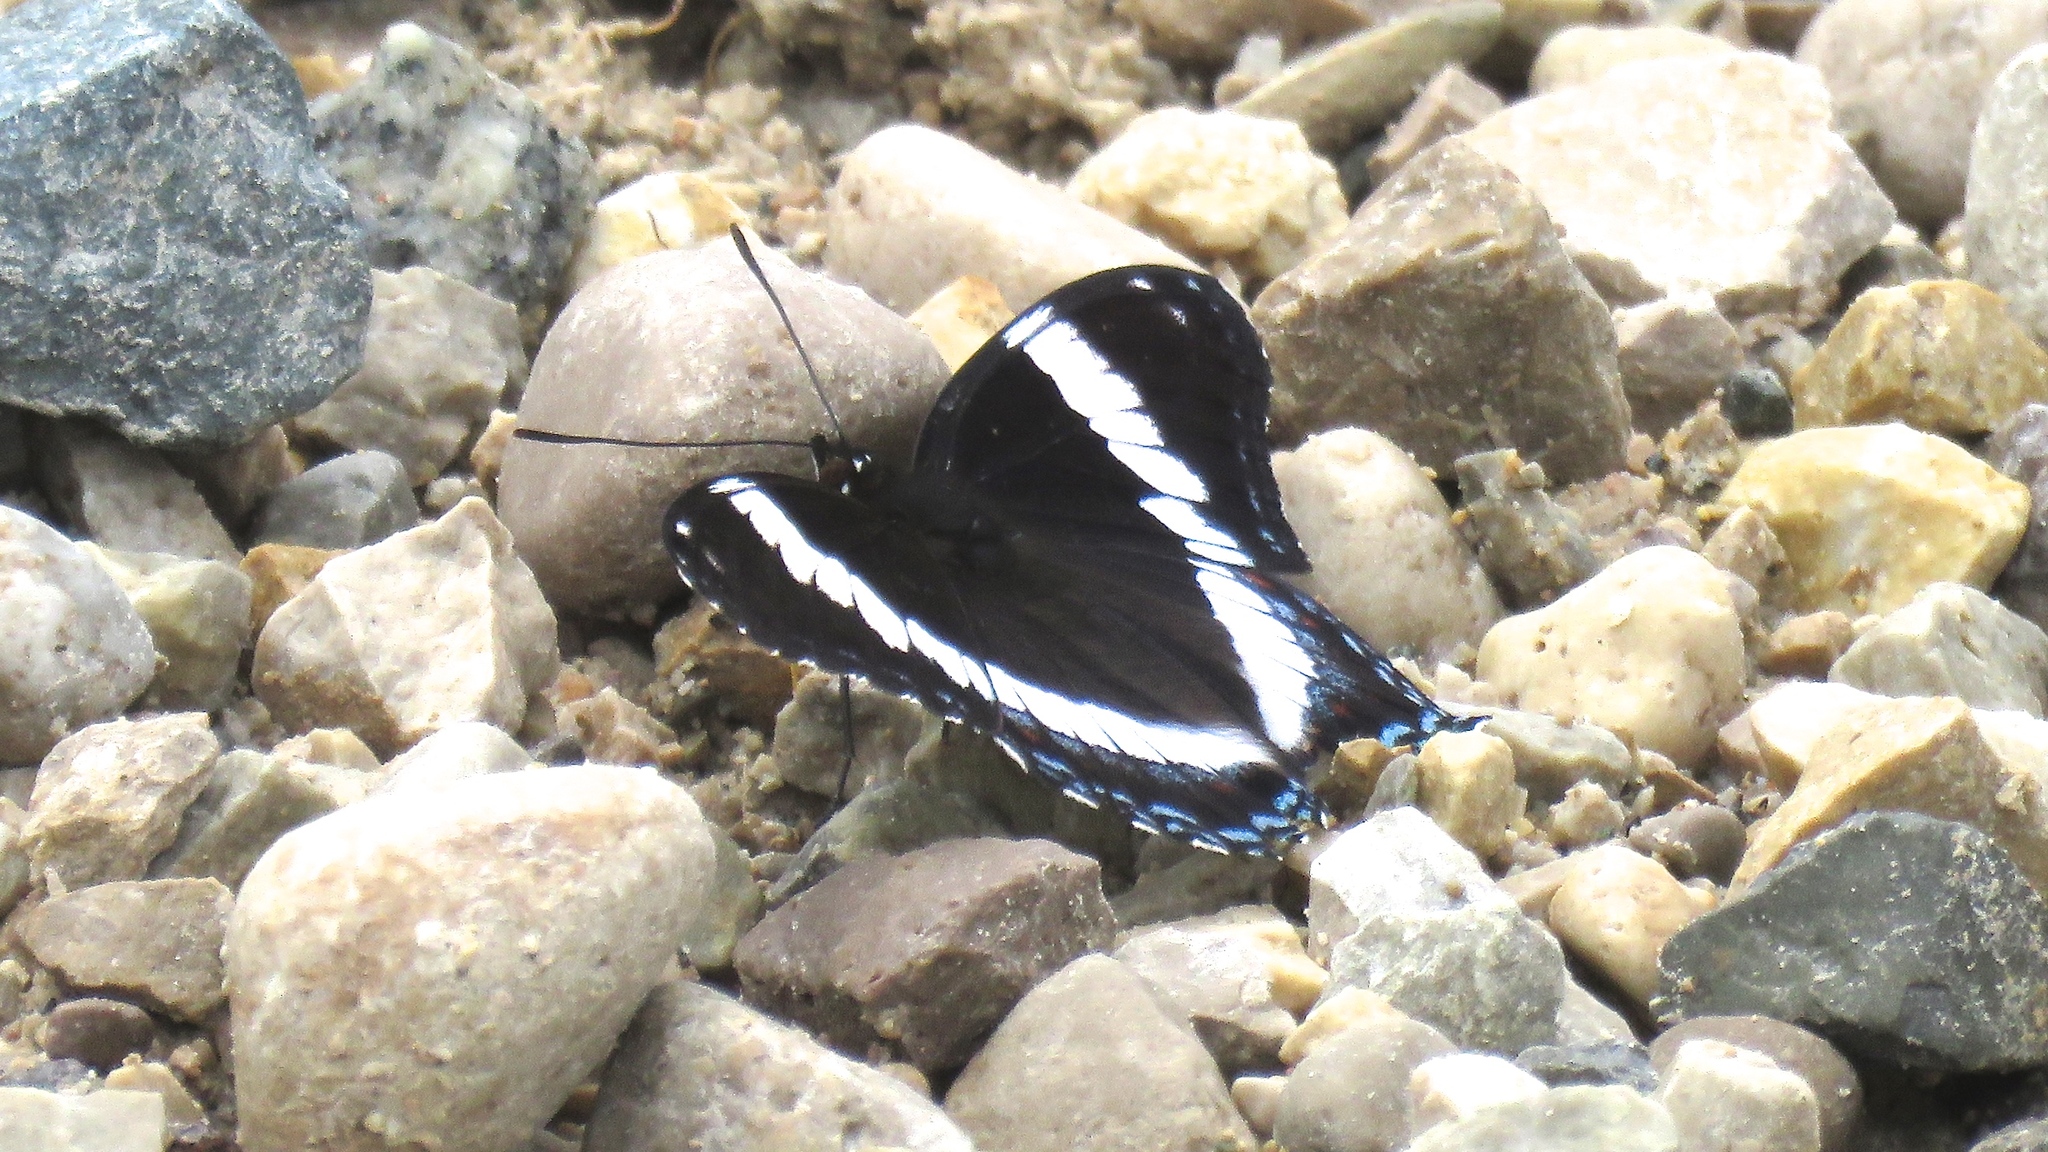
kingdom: Animalia
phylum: Arthropoda
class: Insecta
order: Lepidoptera
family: Nymphalidae
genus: Limenitis
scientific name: Limenitis arthemis
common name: Red-spotted admiral
